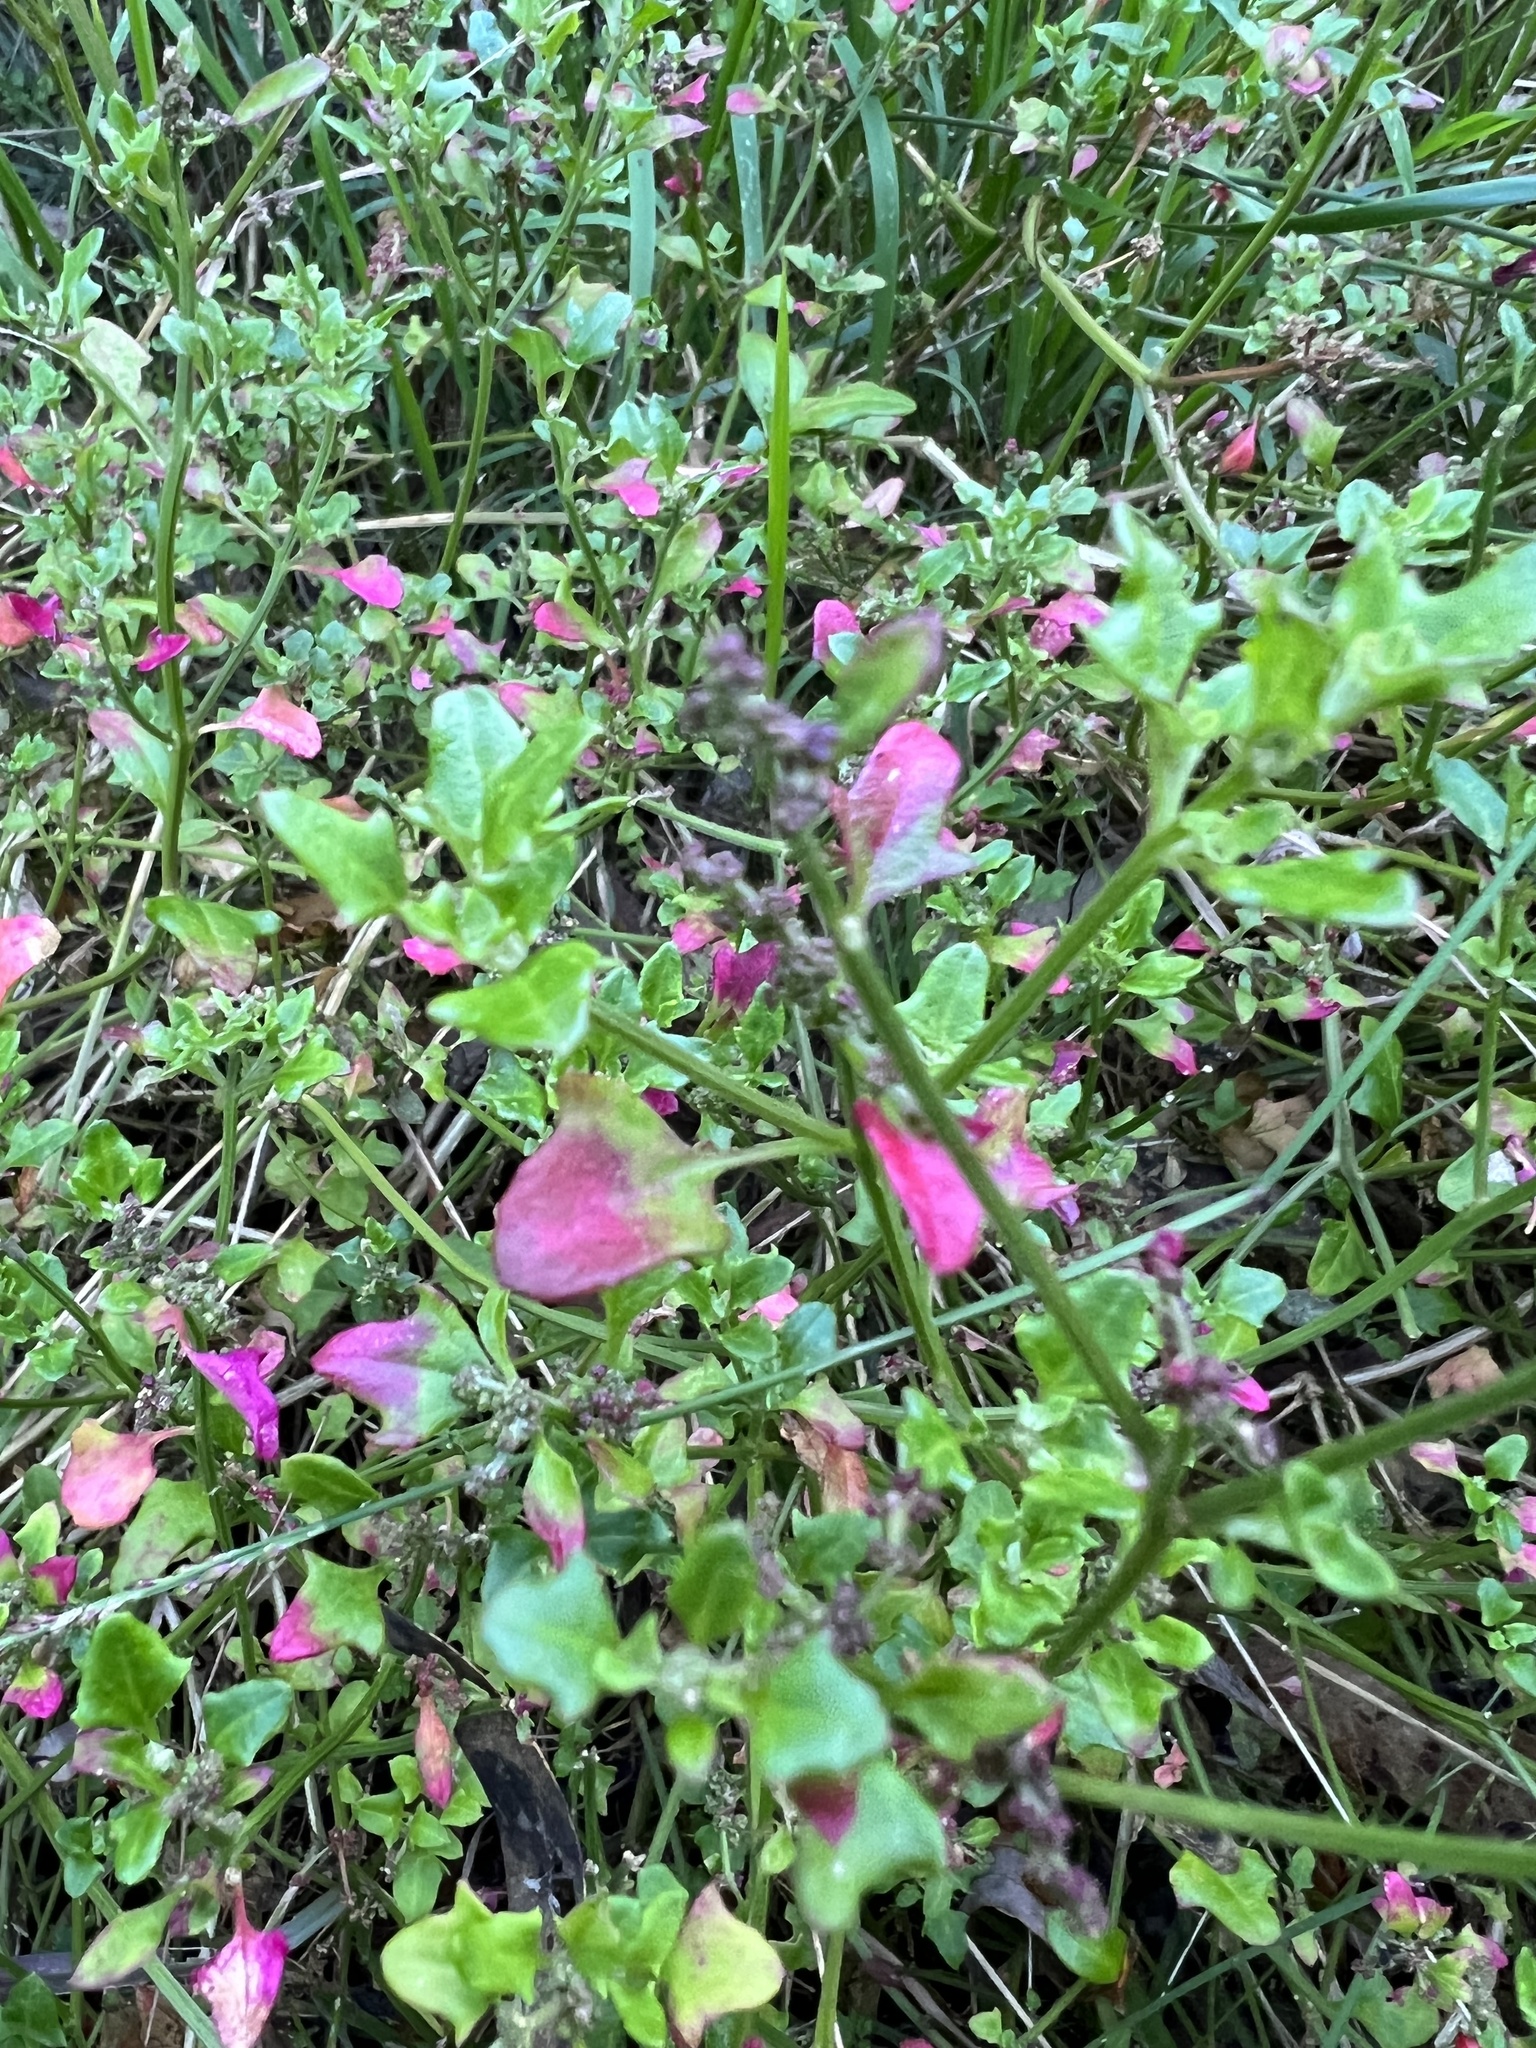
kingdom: Plantae
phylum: Tracheophyta
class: Magnoliopsida
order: Caryophyllales
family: Amaranthaceae
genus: Chenopodium
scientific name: Chenopodium robertianum
